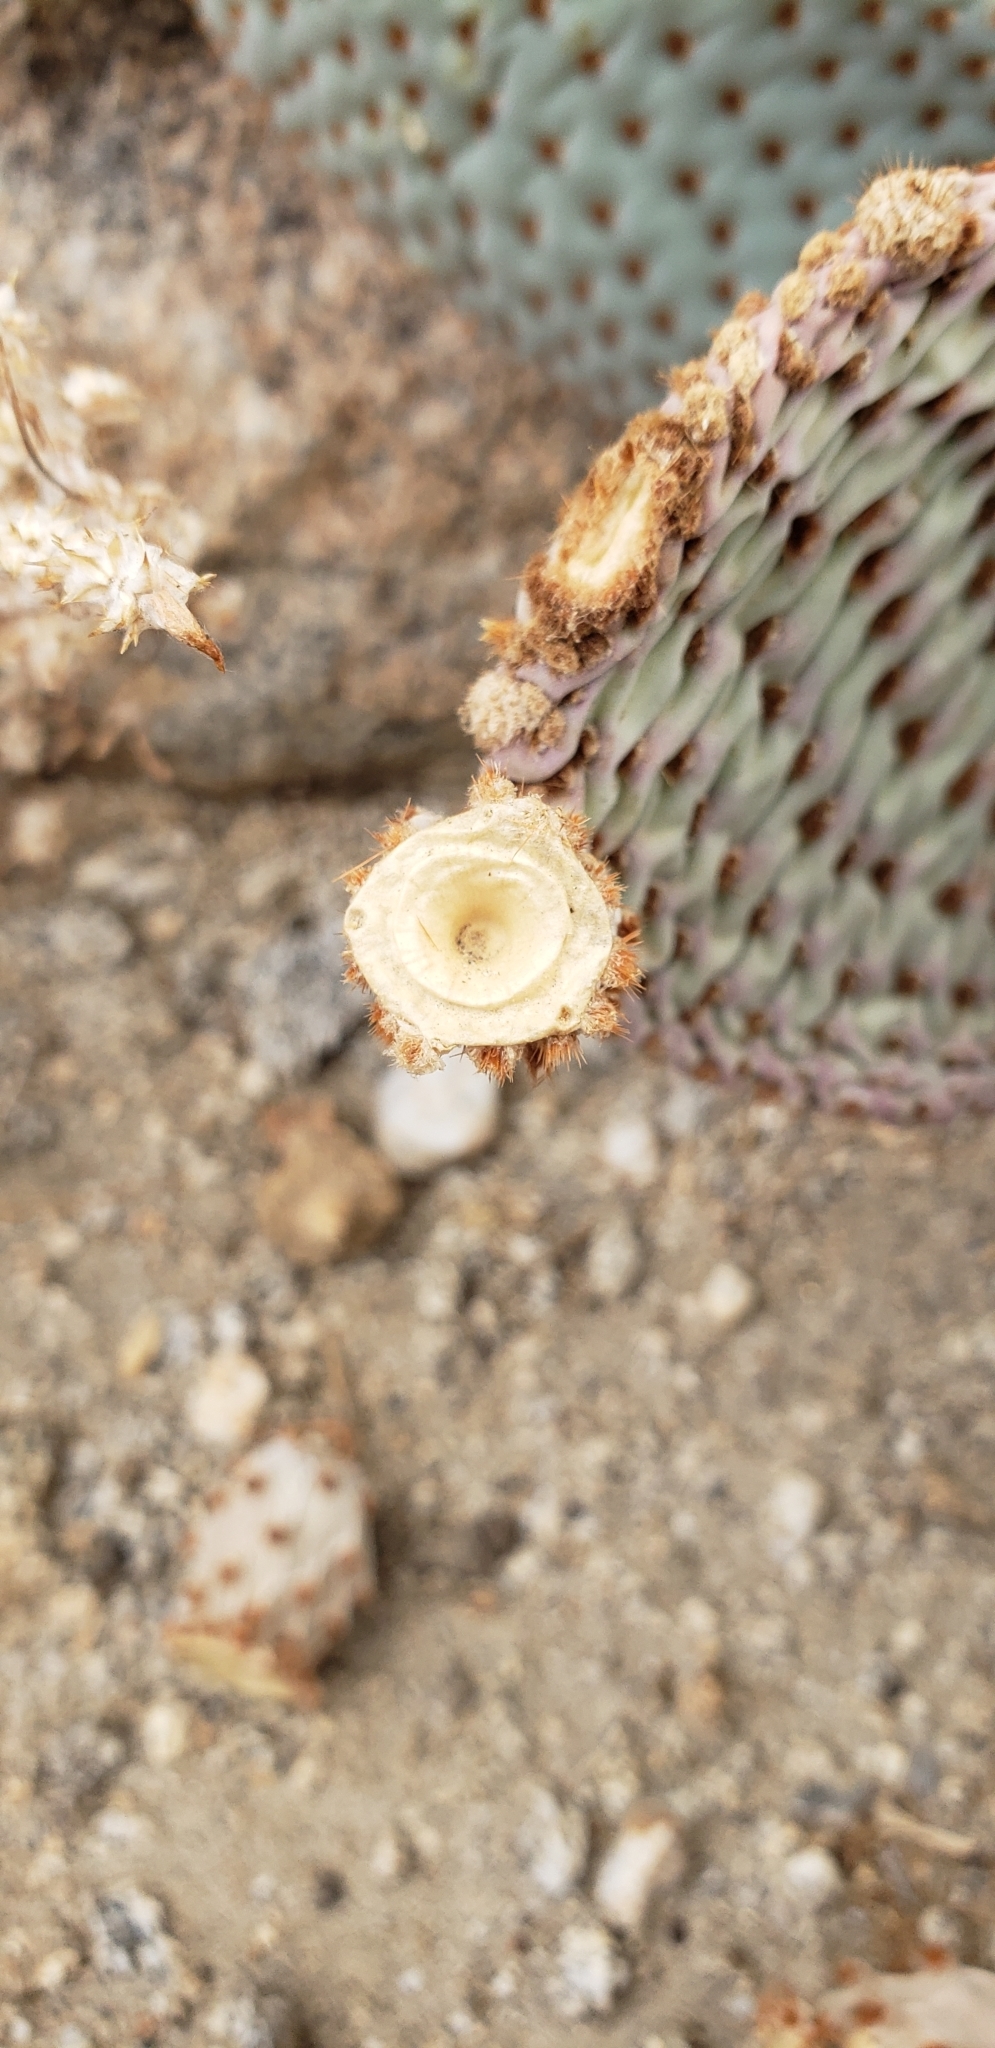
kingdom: Plantae
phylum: Tracheophyta
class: Magnoliopsida
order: Caryophyllales
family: Cactaceae
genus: Opuntia
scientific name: Opuntia basilaris
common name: Beavertail prickly-pear
